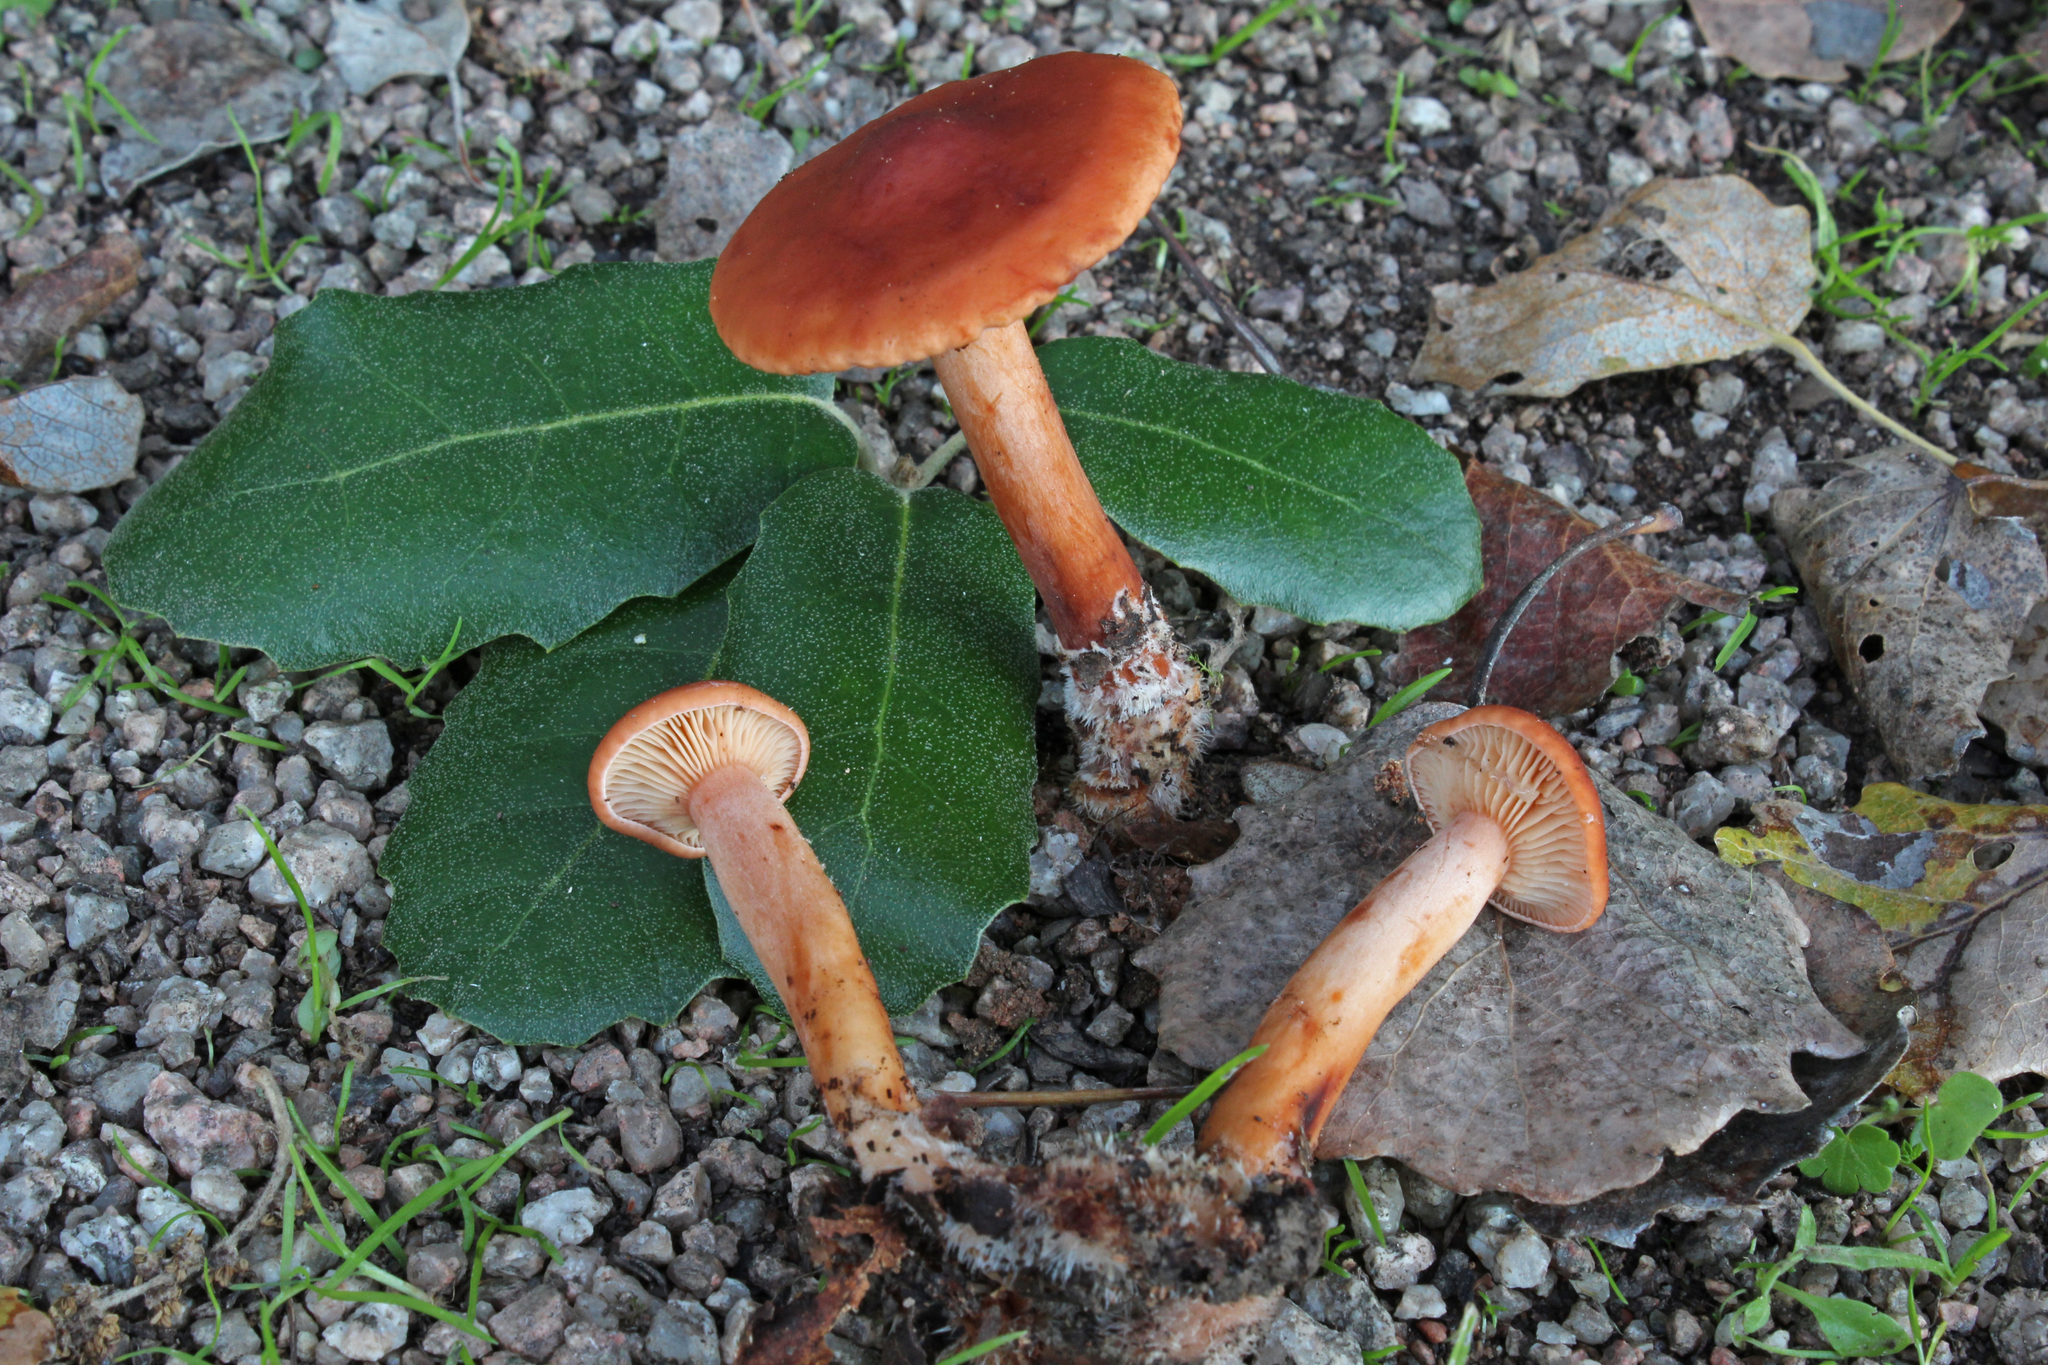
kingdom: Fungi
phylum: Basidiomycota
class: Agaricomycetes
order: Russulales
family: Russulaceae
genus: Lactarius
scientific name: Lactarius atlanticus
